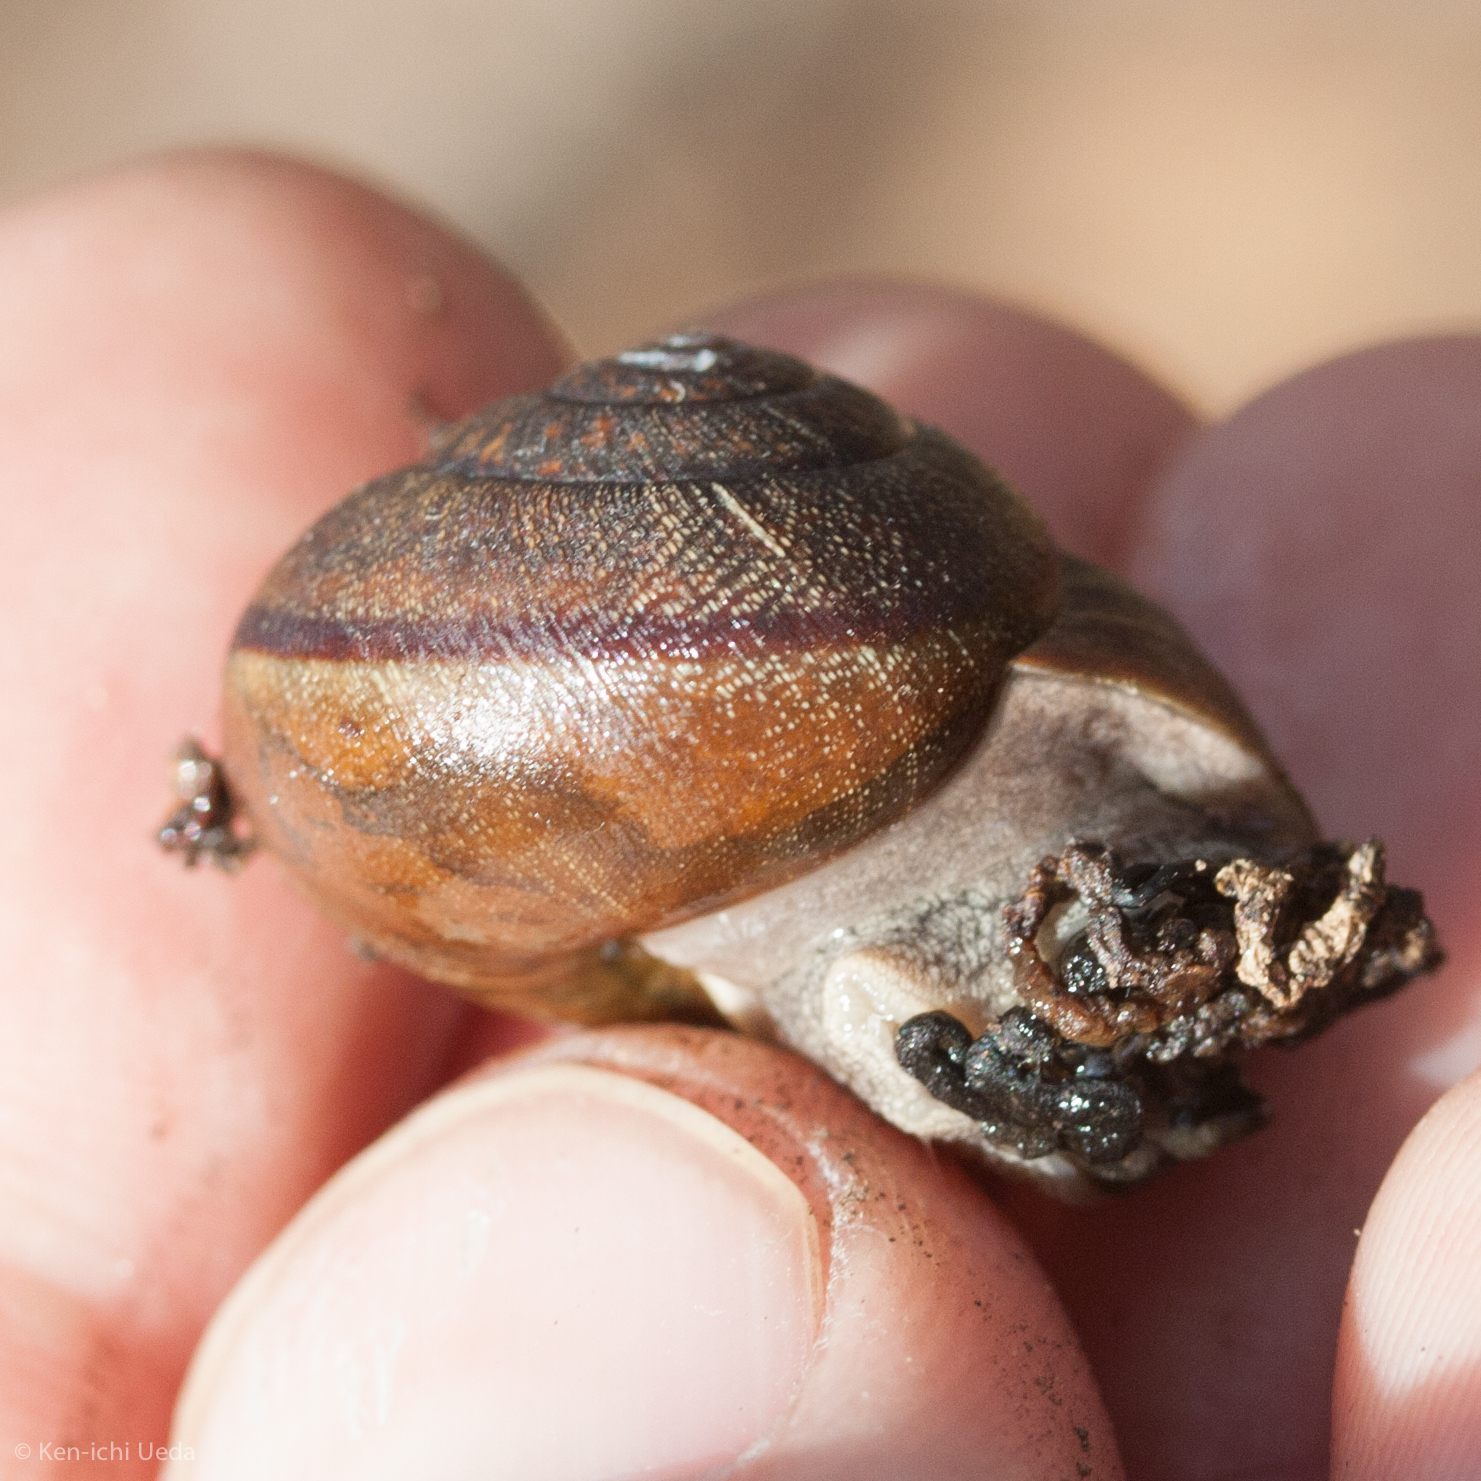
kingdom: Animalia
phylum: Mollusca
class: Gastropoda
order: Stylommatophora
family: Xanthonychidae
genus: Helminthoglypta
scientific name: Helminthoglypta nickliniana
